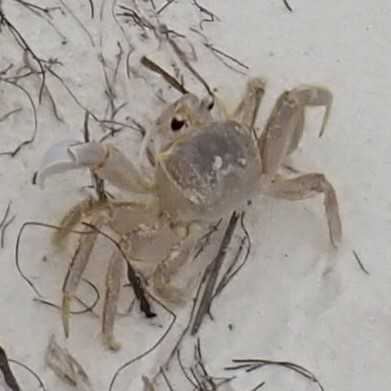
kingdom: Animalia
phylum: Arthropoda
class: Malacostraca
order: Decapoda
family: Ocypodidae
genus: Ocypode
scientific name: Ocypode quadrata
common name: Ghost crab
